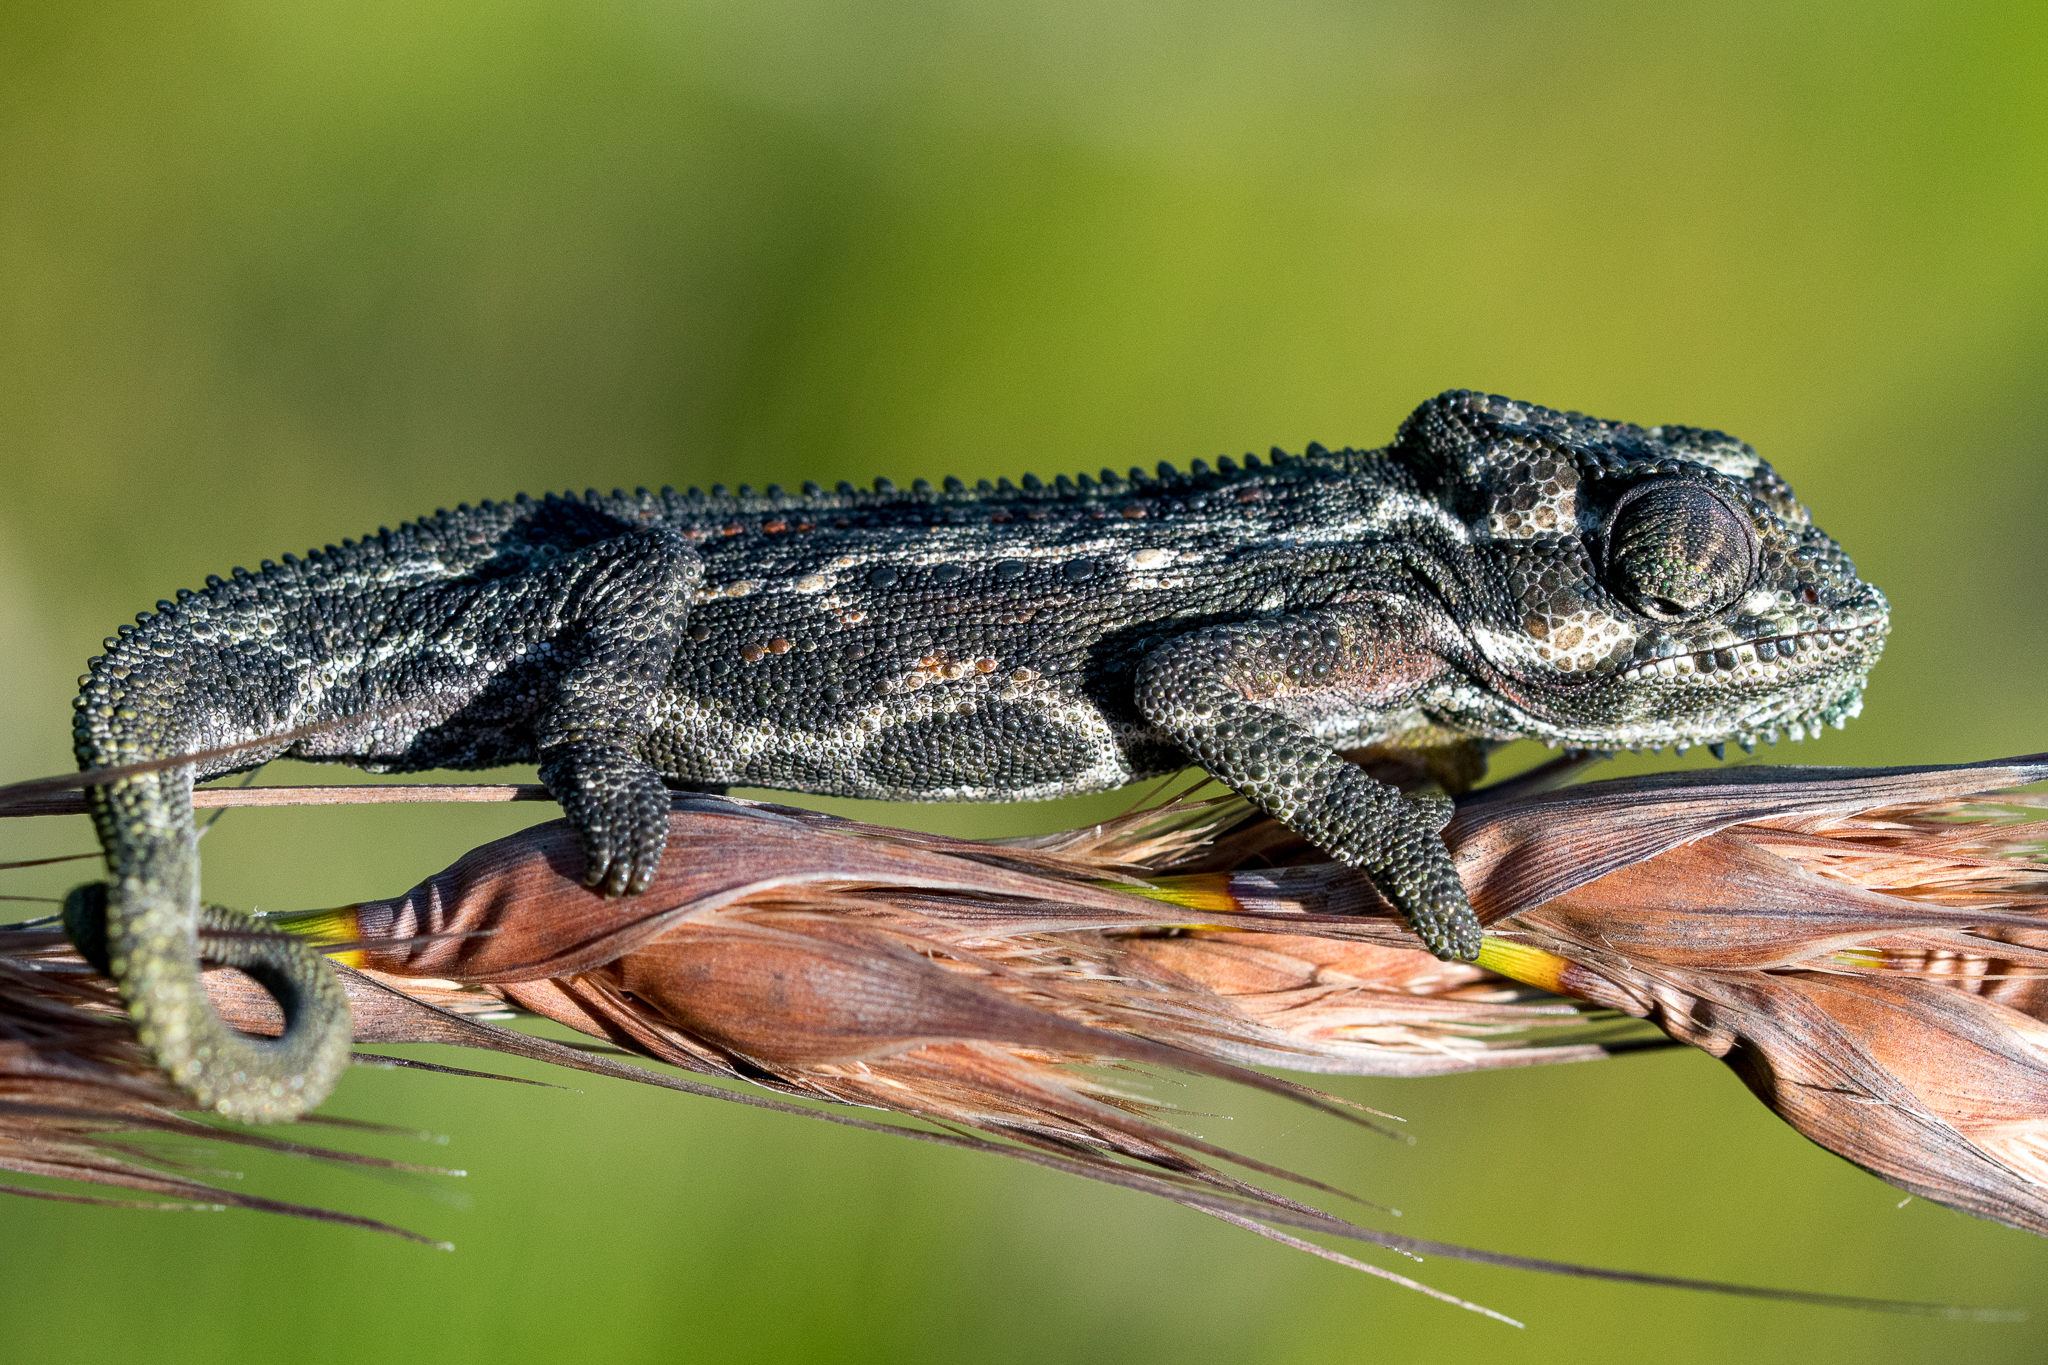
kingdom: Animalia
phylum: Chordata
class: Squamata
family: Chamaeleonidae
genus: Bradypodion
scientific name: Bradypodion pumilum
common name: Cape dwarf chameleon
